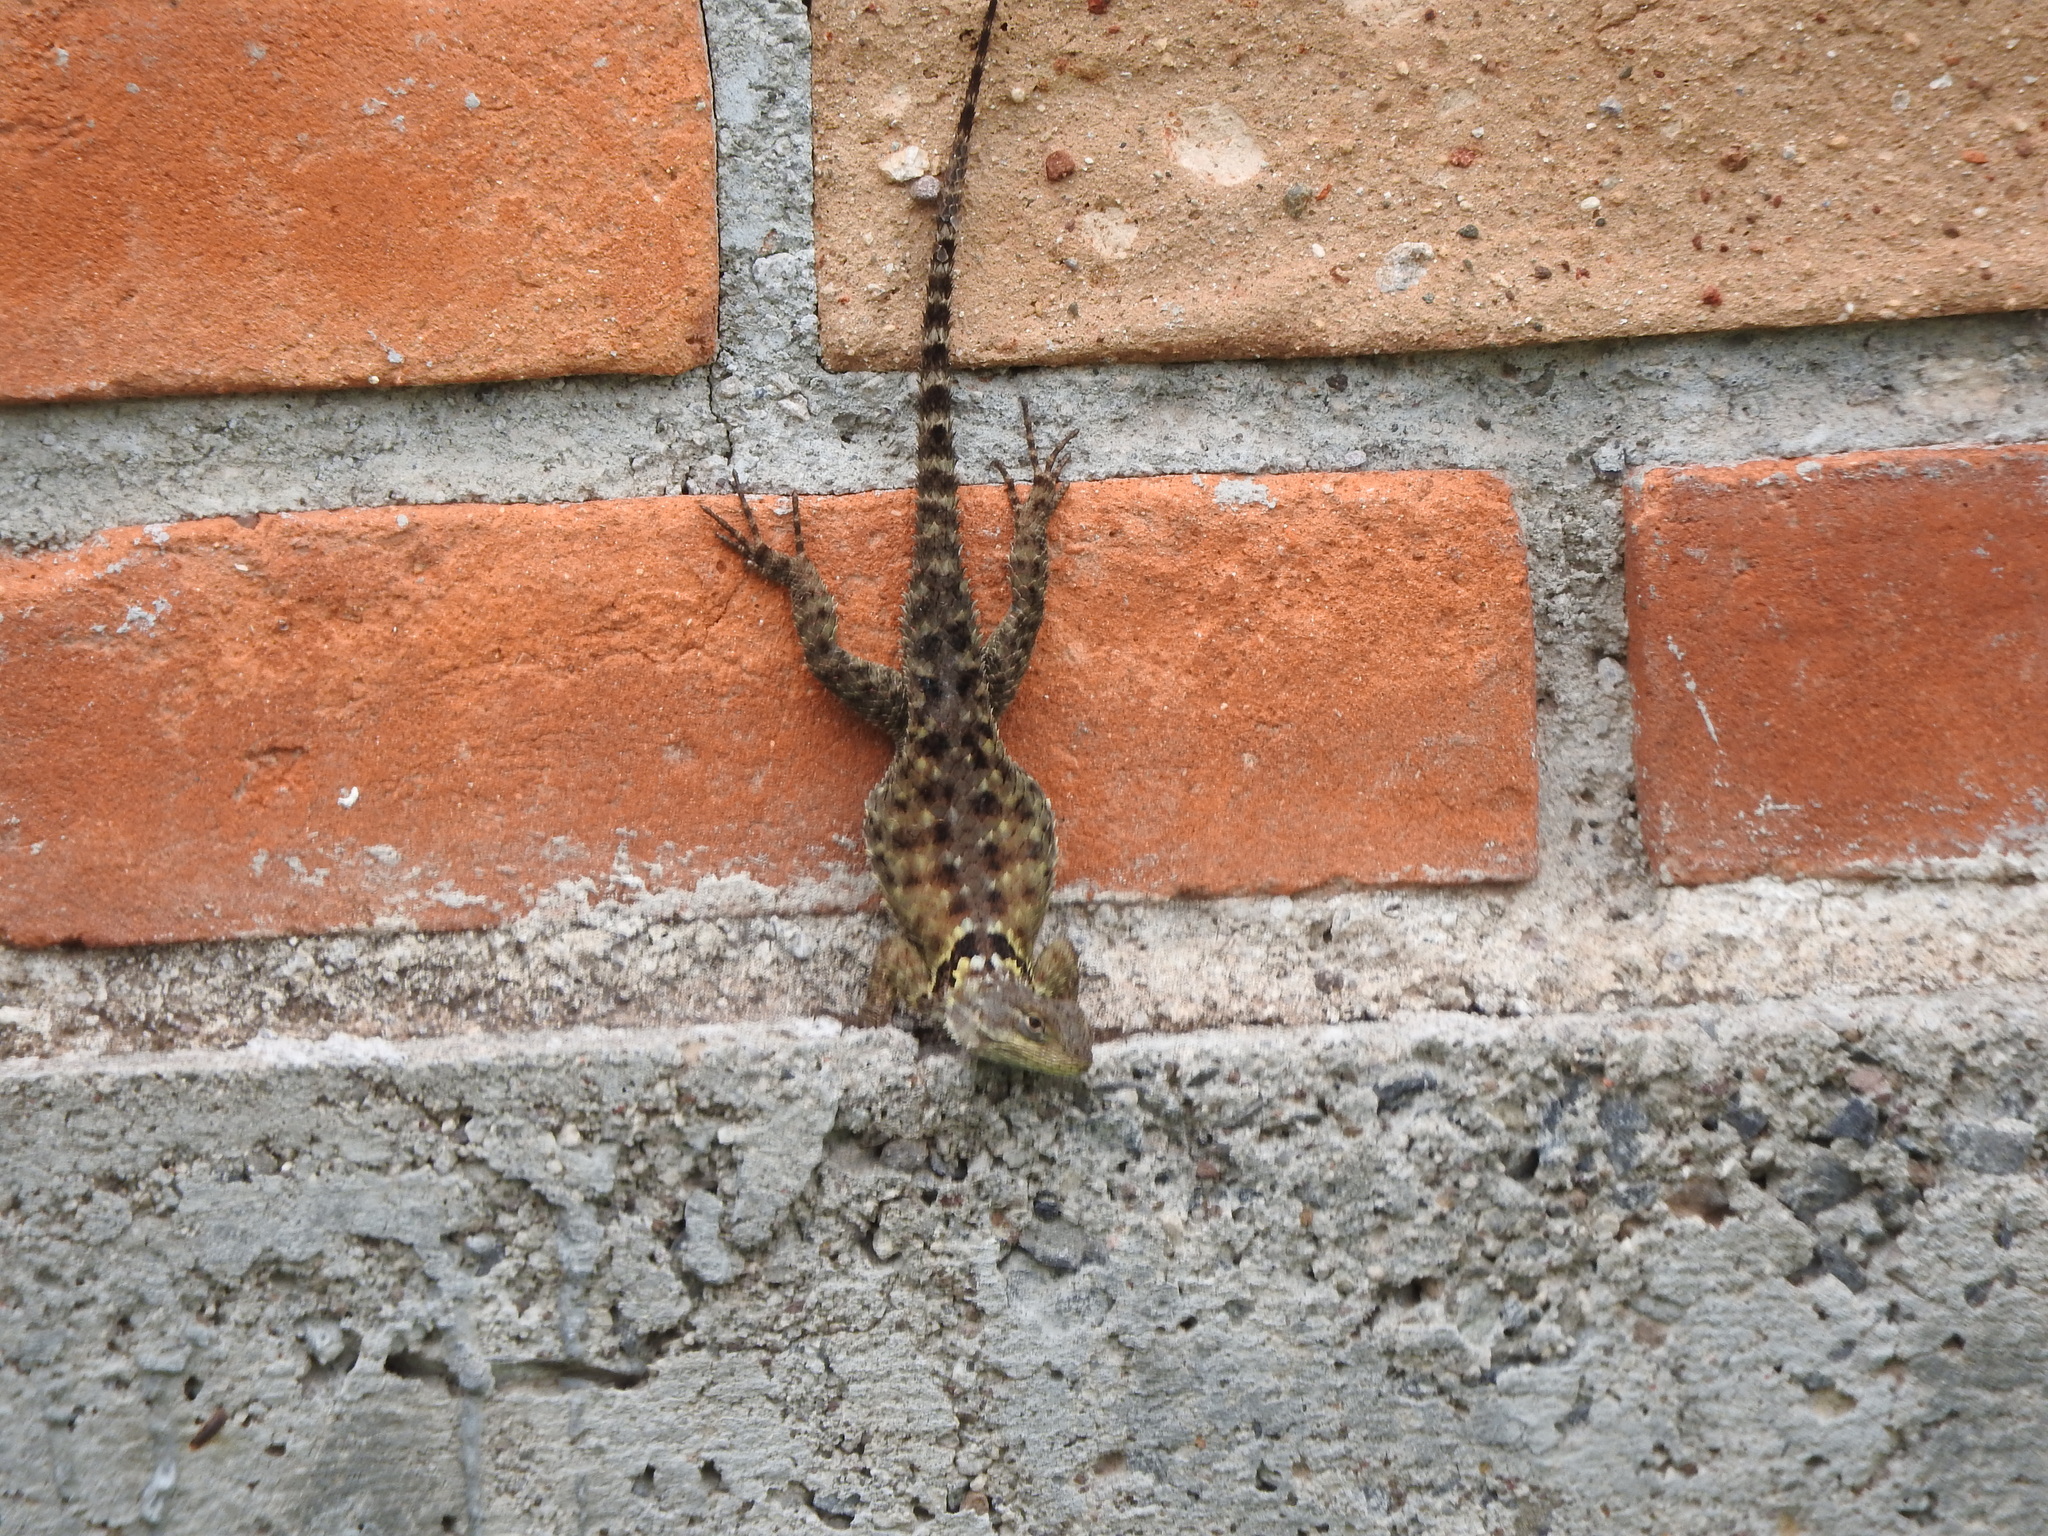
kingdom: Animalia
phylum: Chordata
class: Squamata
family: Phrynosomatidae
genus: Sceloporus
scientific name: Sceloporus torquatus
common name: Central plateau torquate lizard [melanogaster]
